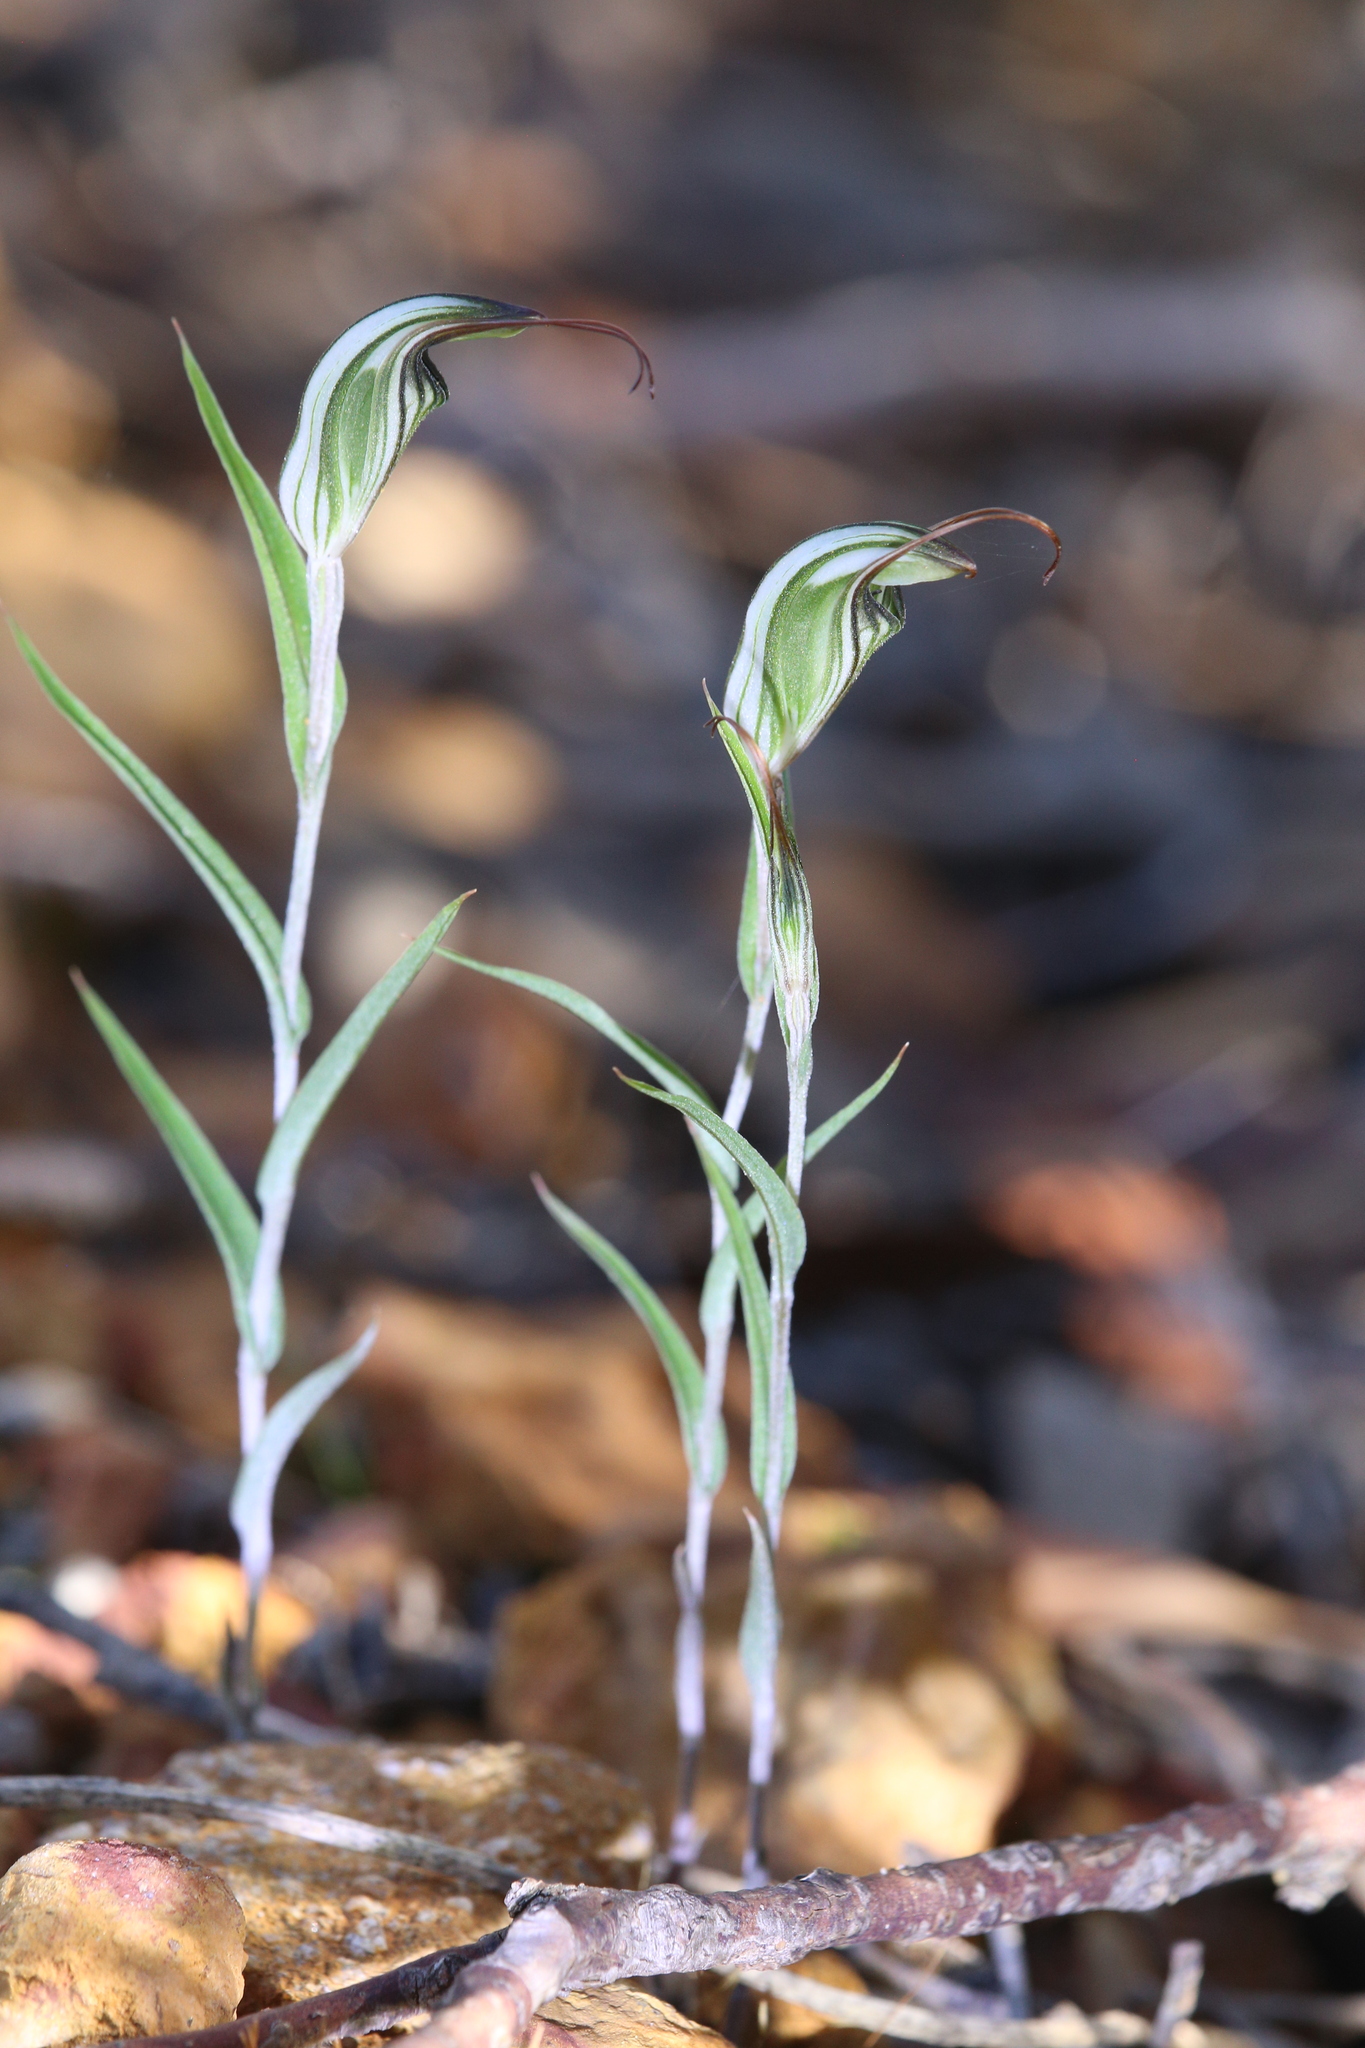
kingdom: Plantae
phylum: Tracheophyta
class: Liliopsida
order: Asparagales
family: Orchidaceae
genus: Pterostylis
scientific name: Pterostylis microglossa
